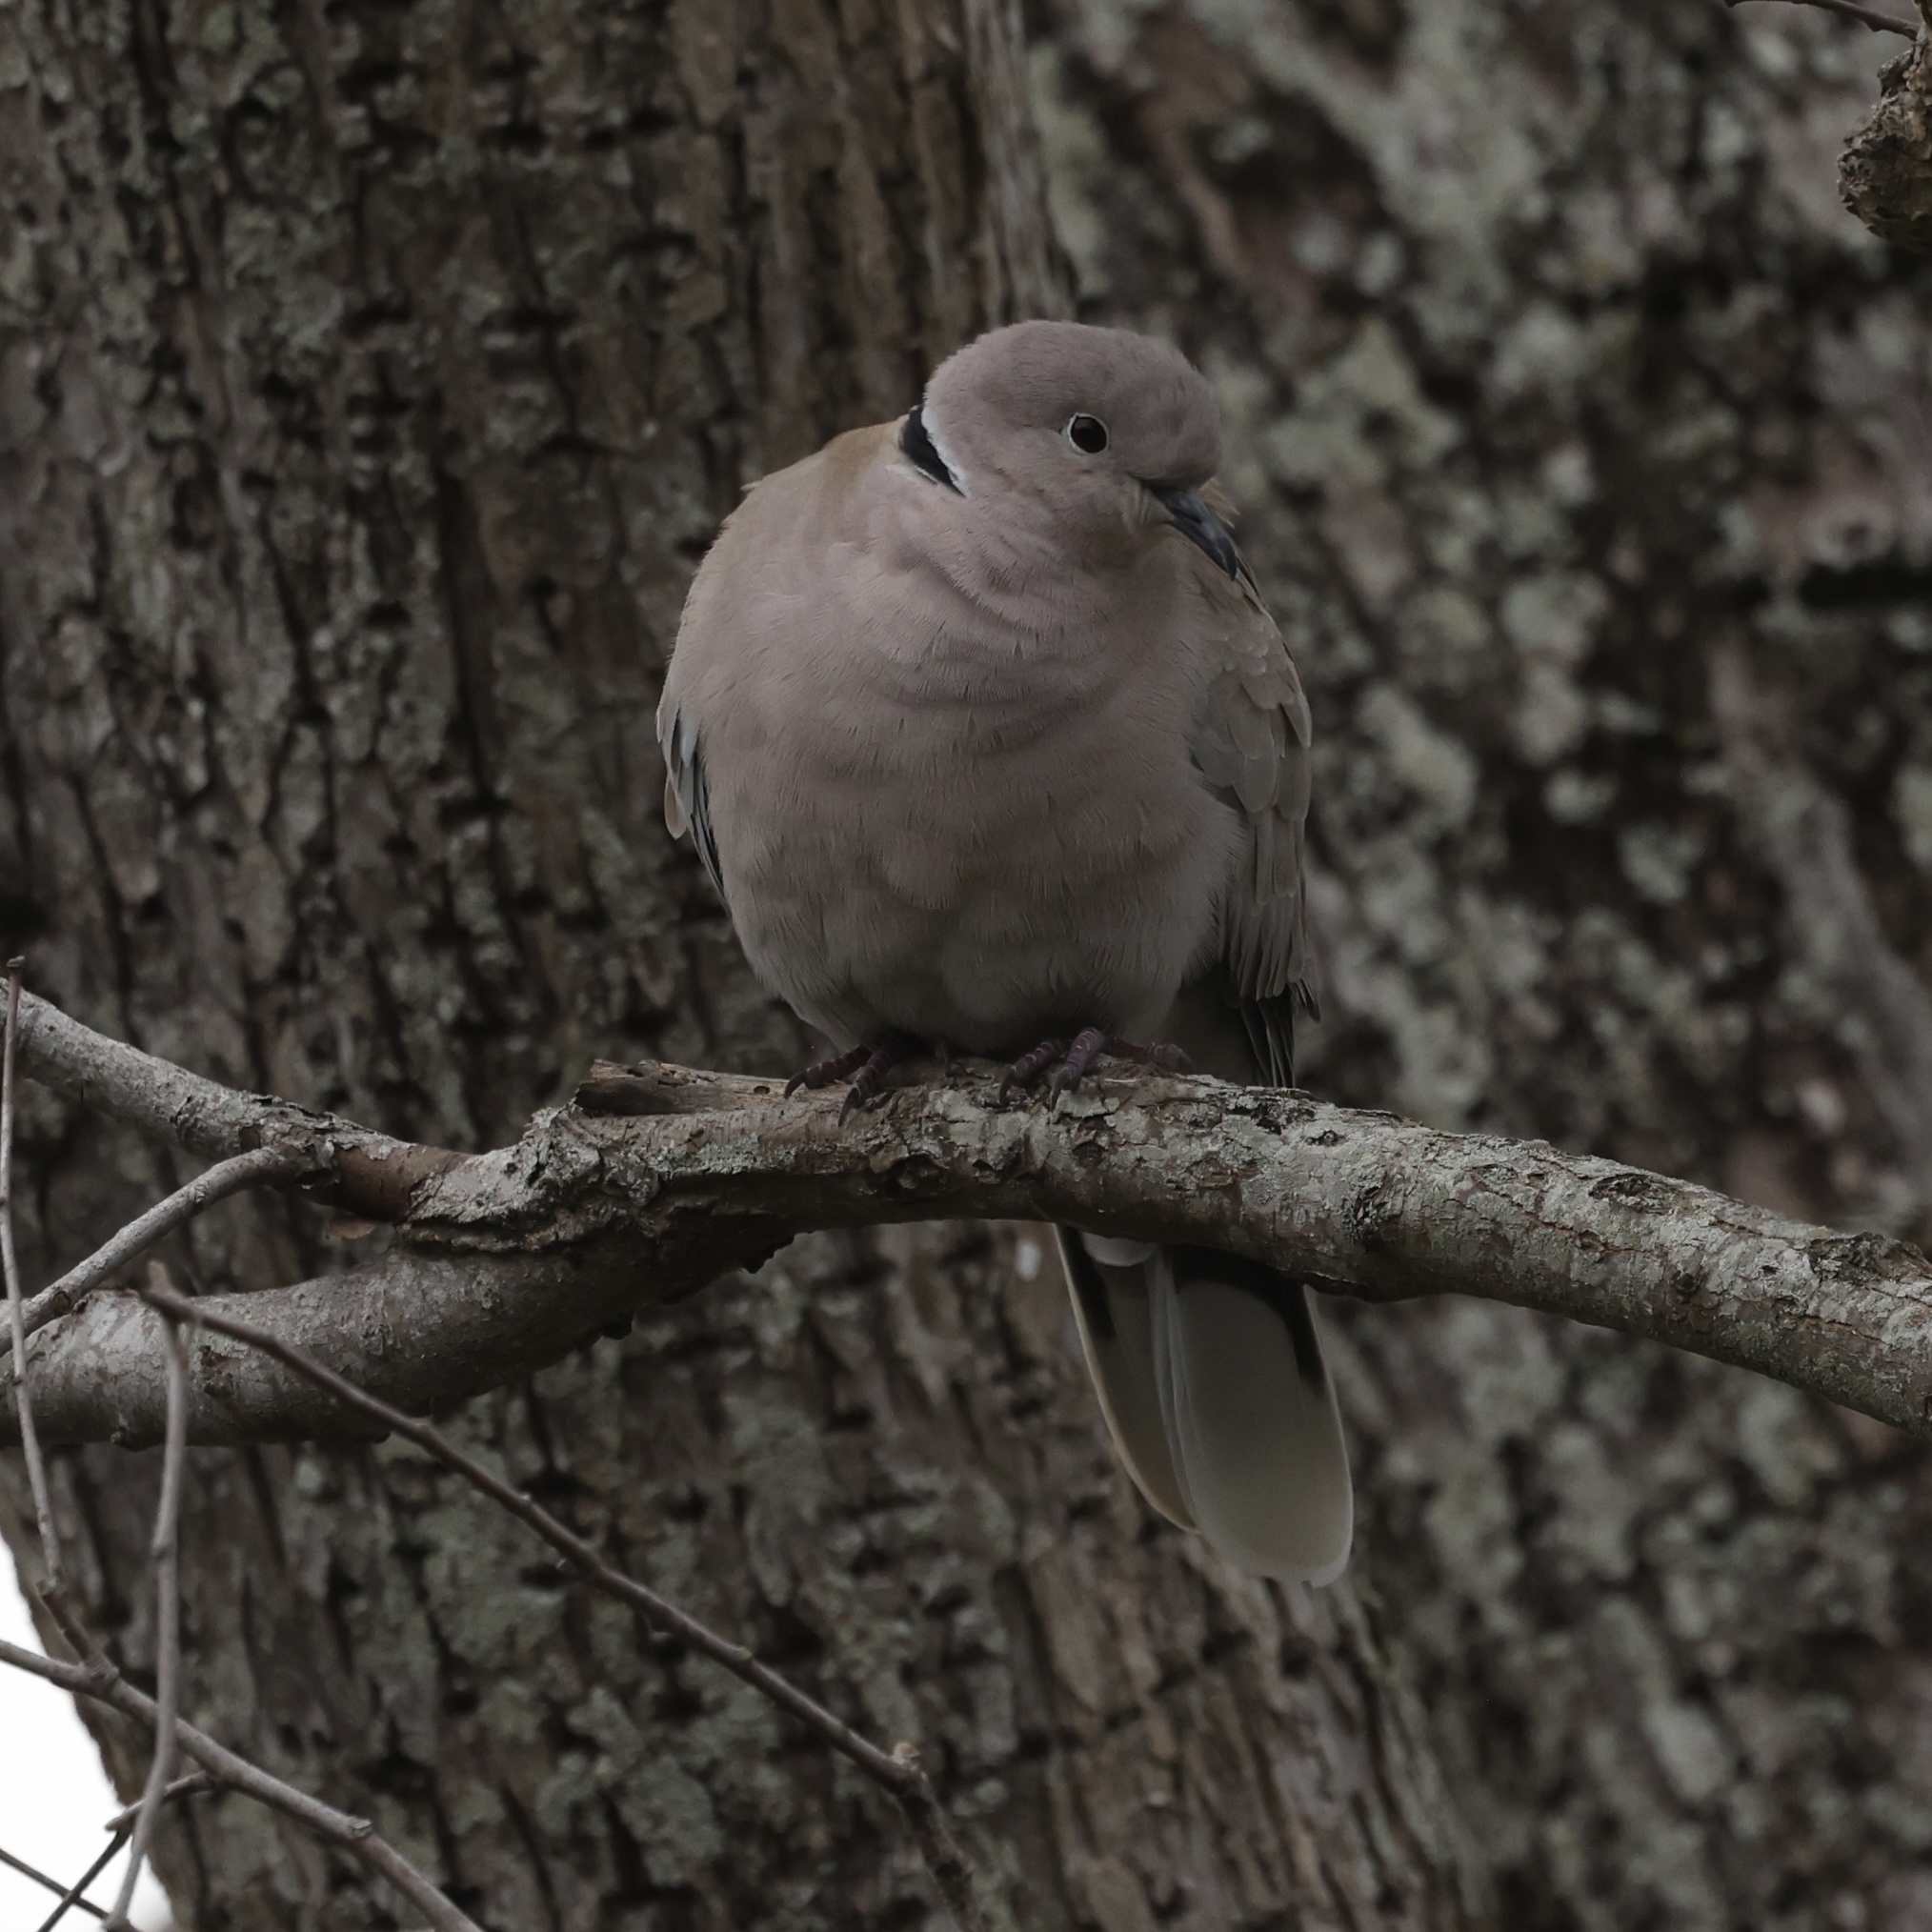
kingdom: Animalia
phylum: Chordata
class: Aves
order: Columbiformes
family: Columbidae
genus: Streptopelia
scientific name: Streptopelia decaocto
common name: Eurasian collared dove
